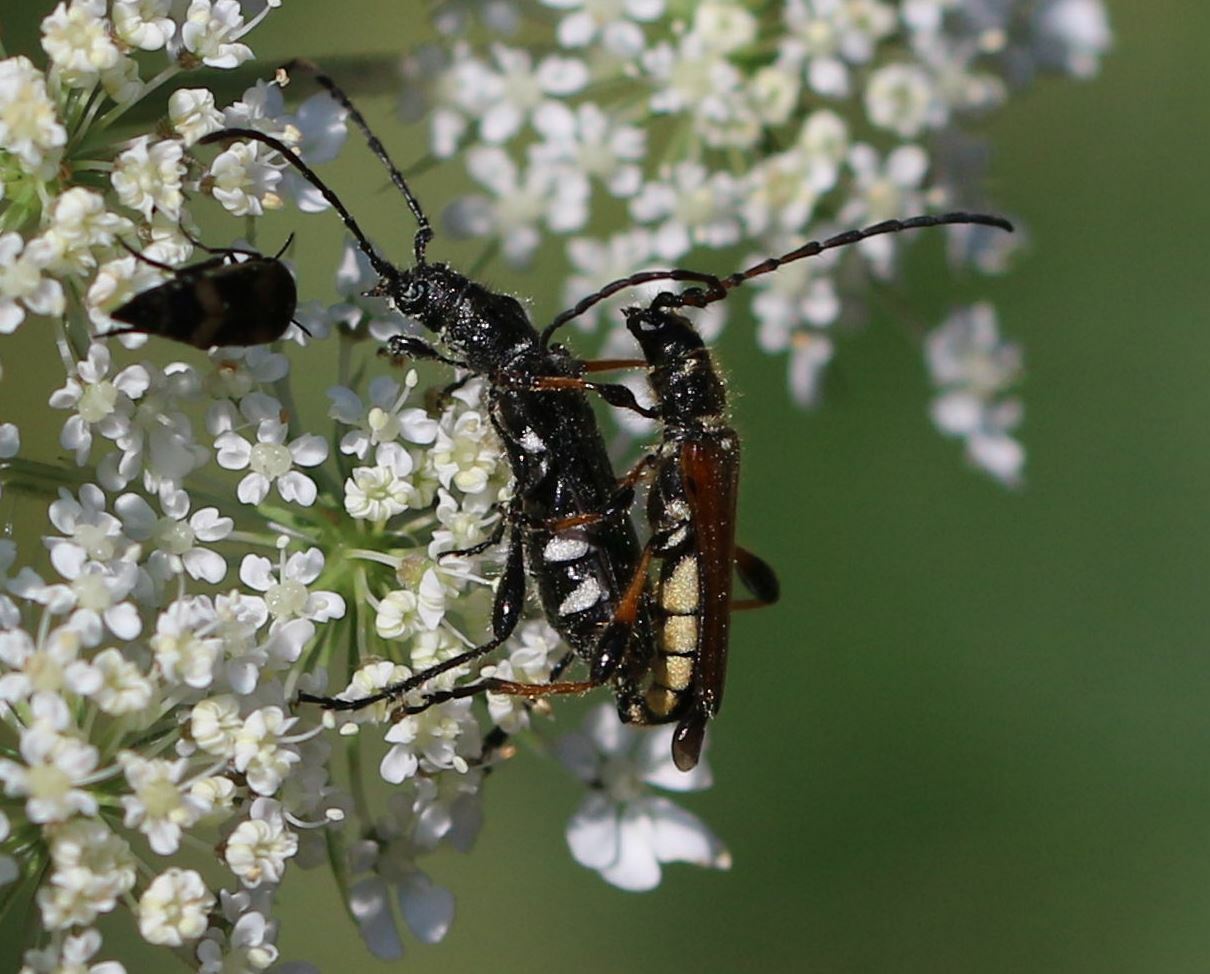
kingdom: Animalia
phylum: Arthropoda
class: Insecta
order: Coleoptera
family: Cerambycidae
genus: Stenopterus
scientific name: Stenopterus ater
